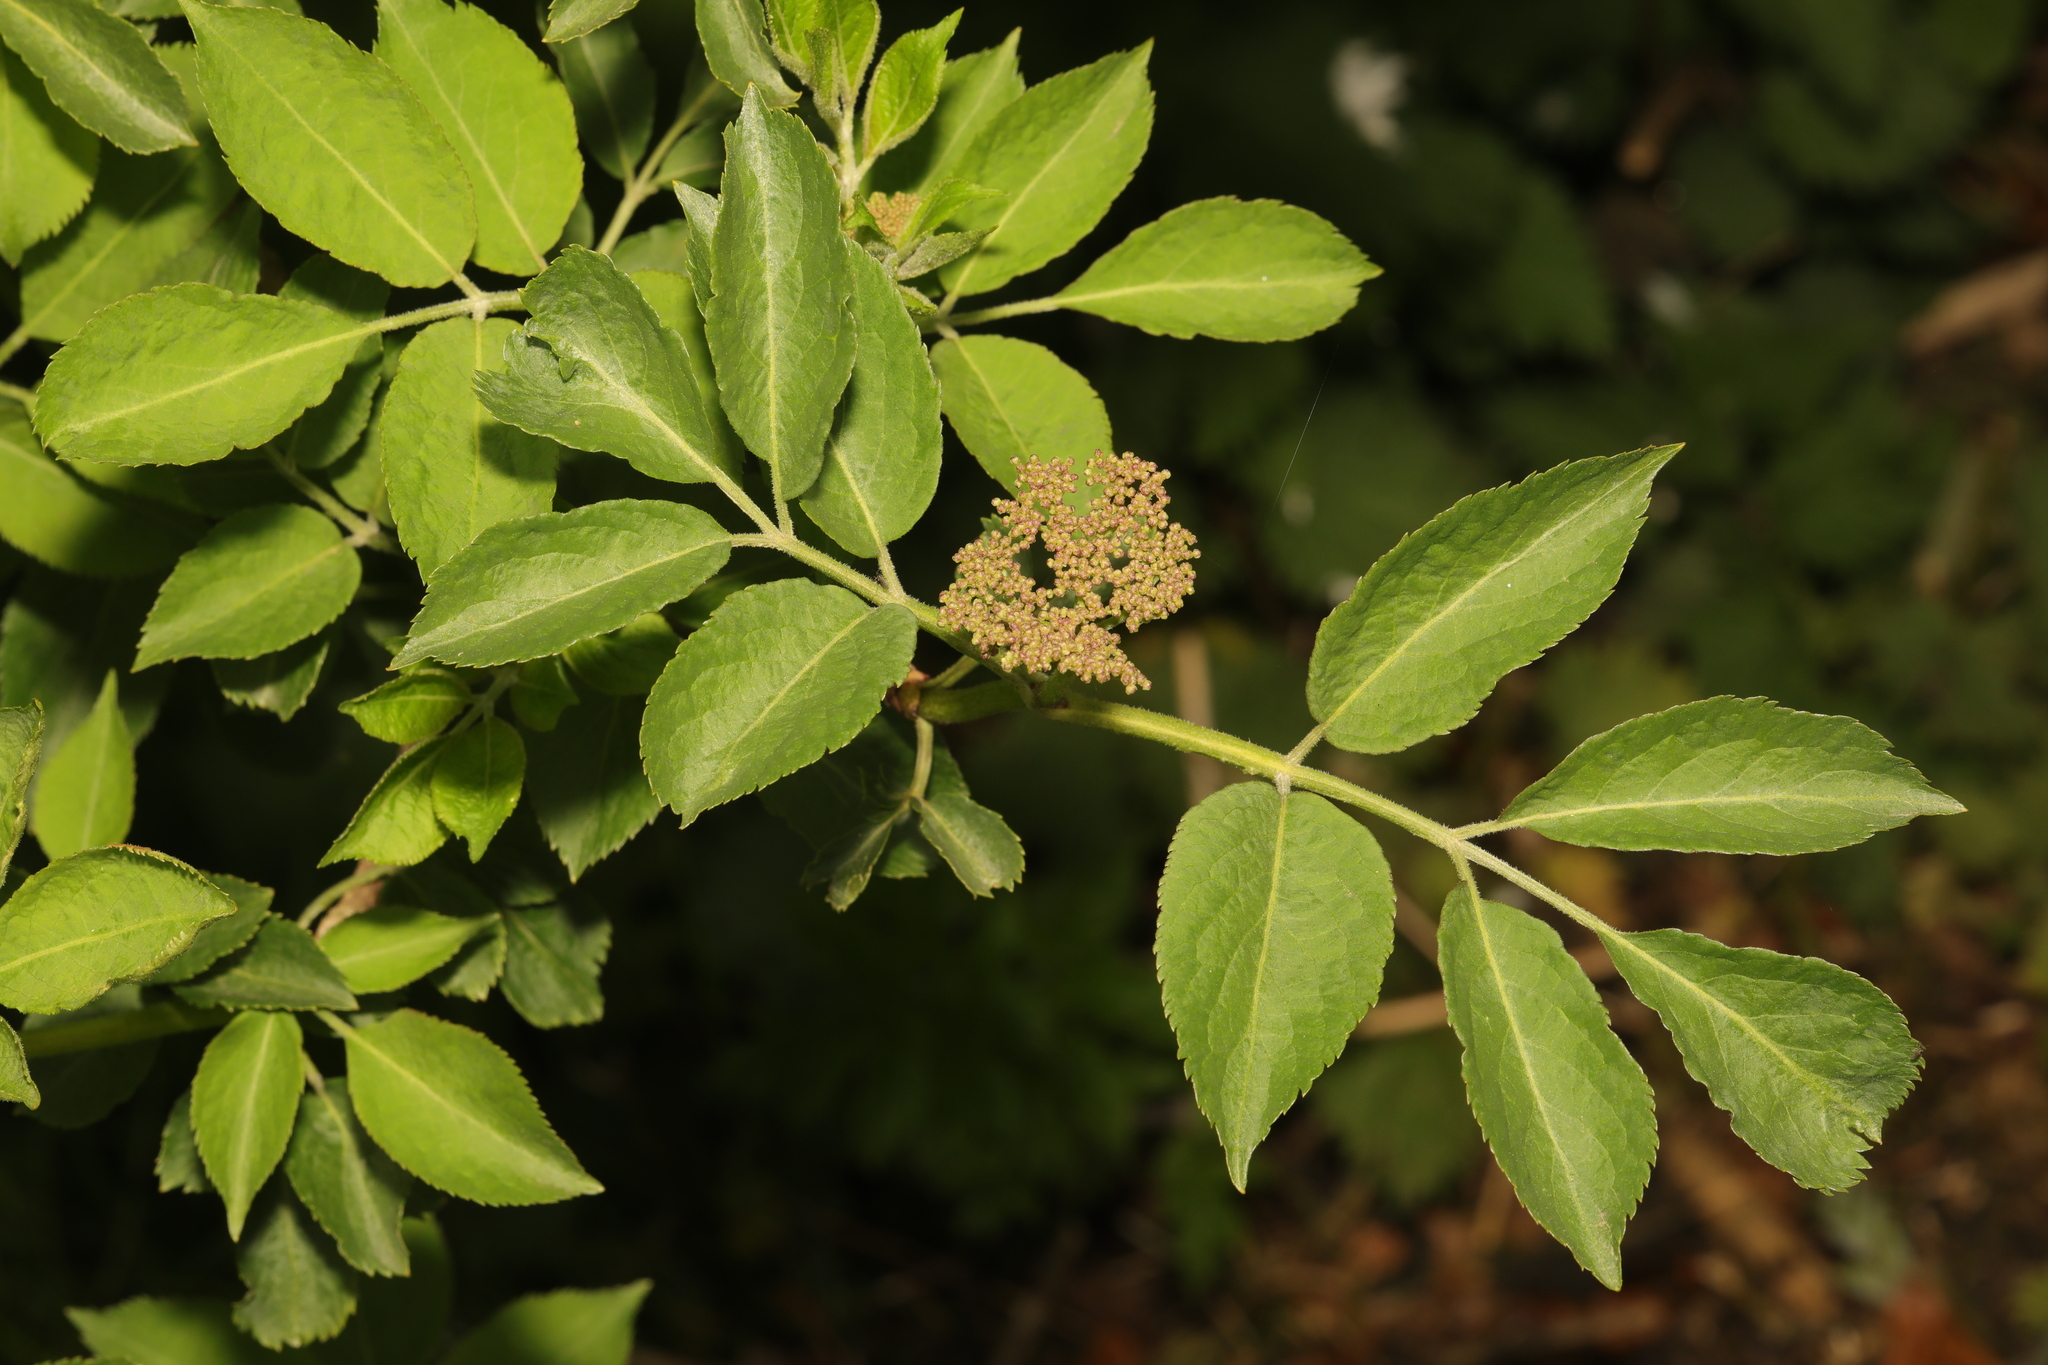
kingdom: Plantae
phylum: Tracheophyta
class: Magnoliopsida
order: Dipsacales
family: Viburnaceae
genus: Sambucus
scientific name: Sambucus nigra
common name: Elder
